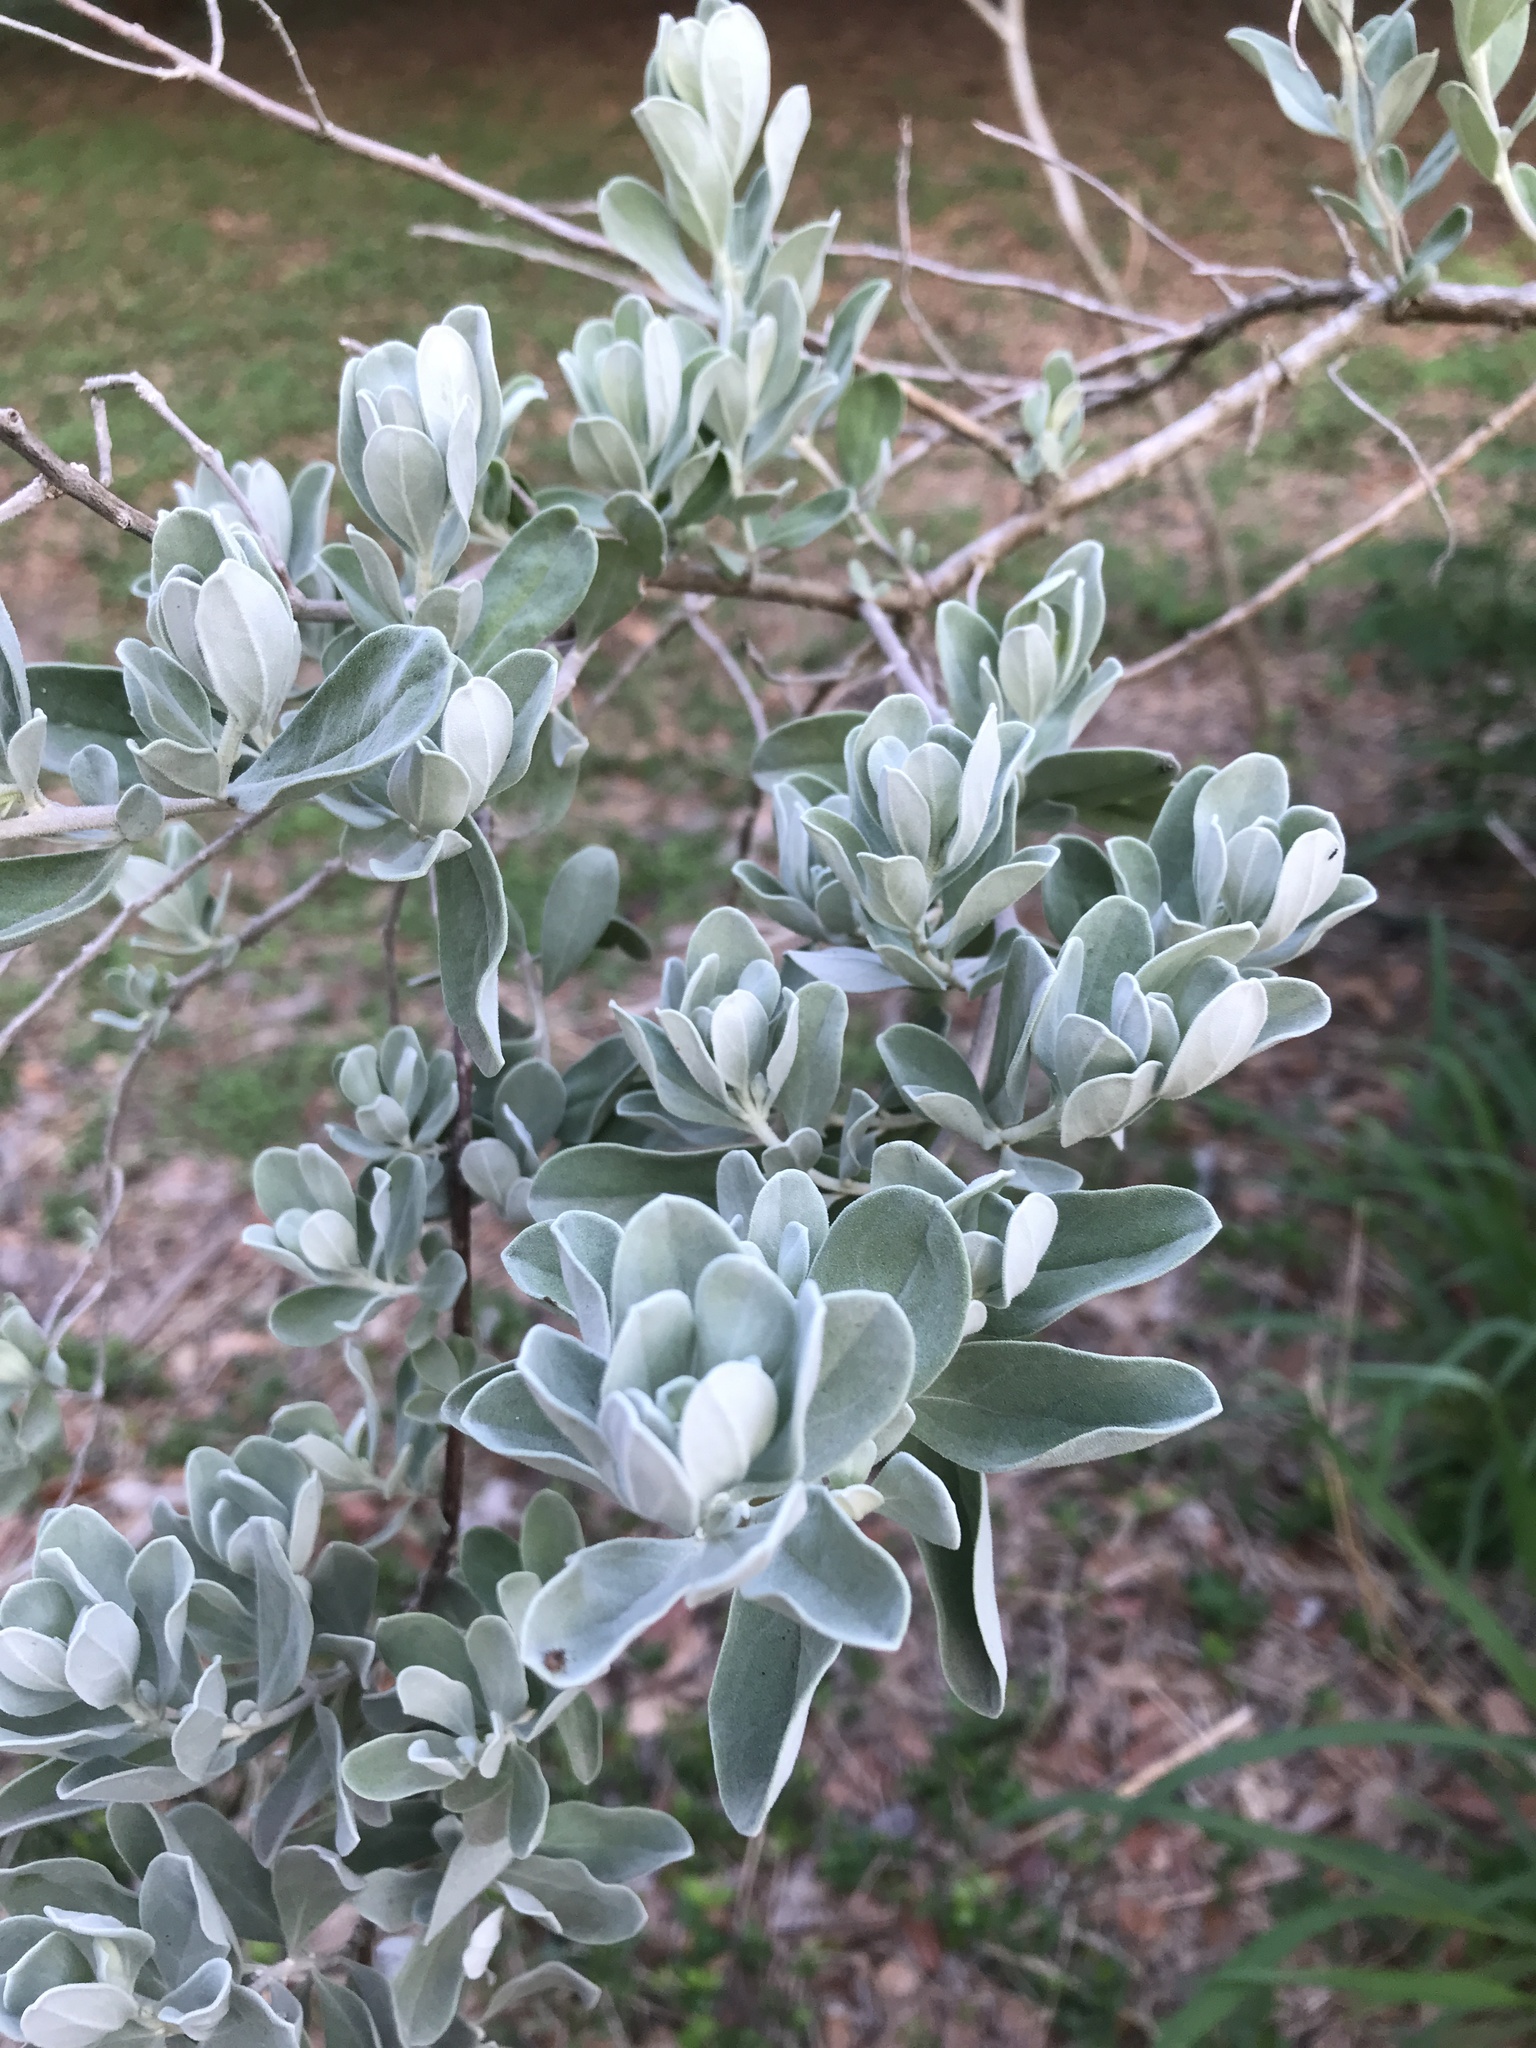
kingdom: Plantae
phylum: Tracheophyta
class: Magnoliopsida
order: Lamiales
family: Scrophulariaceae
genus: Leucophyllum
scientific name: Leucophyllum frutescens
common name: Texas silverleaf
